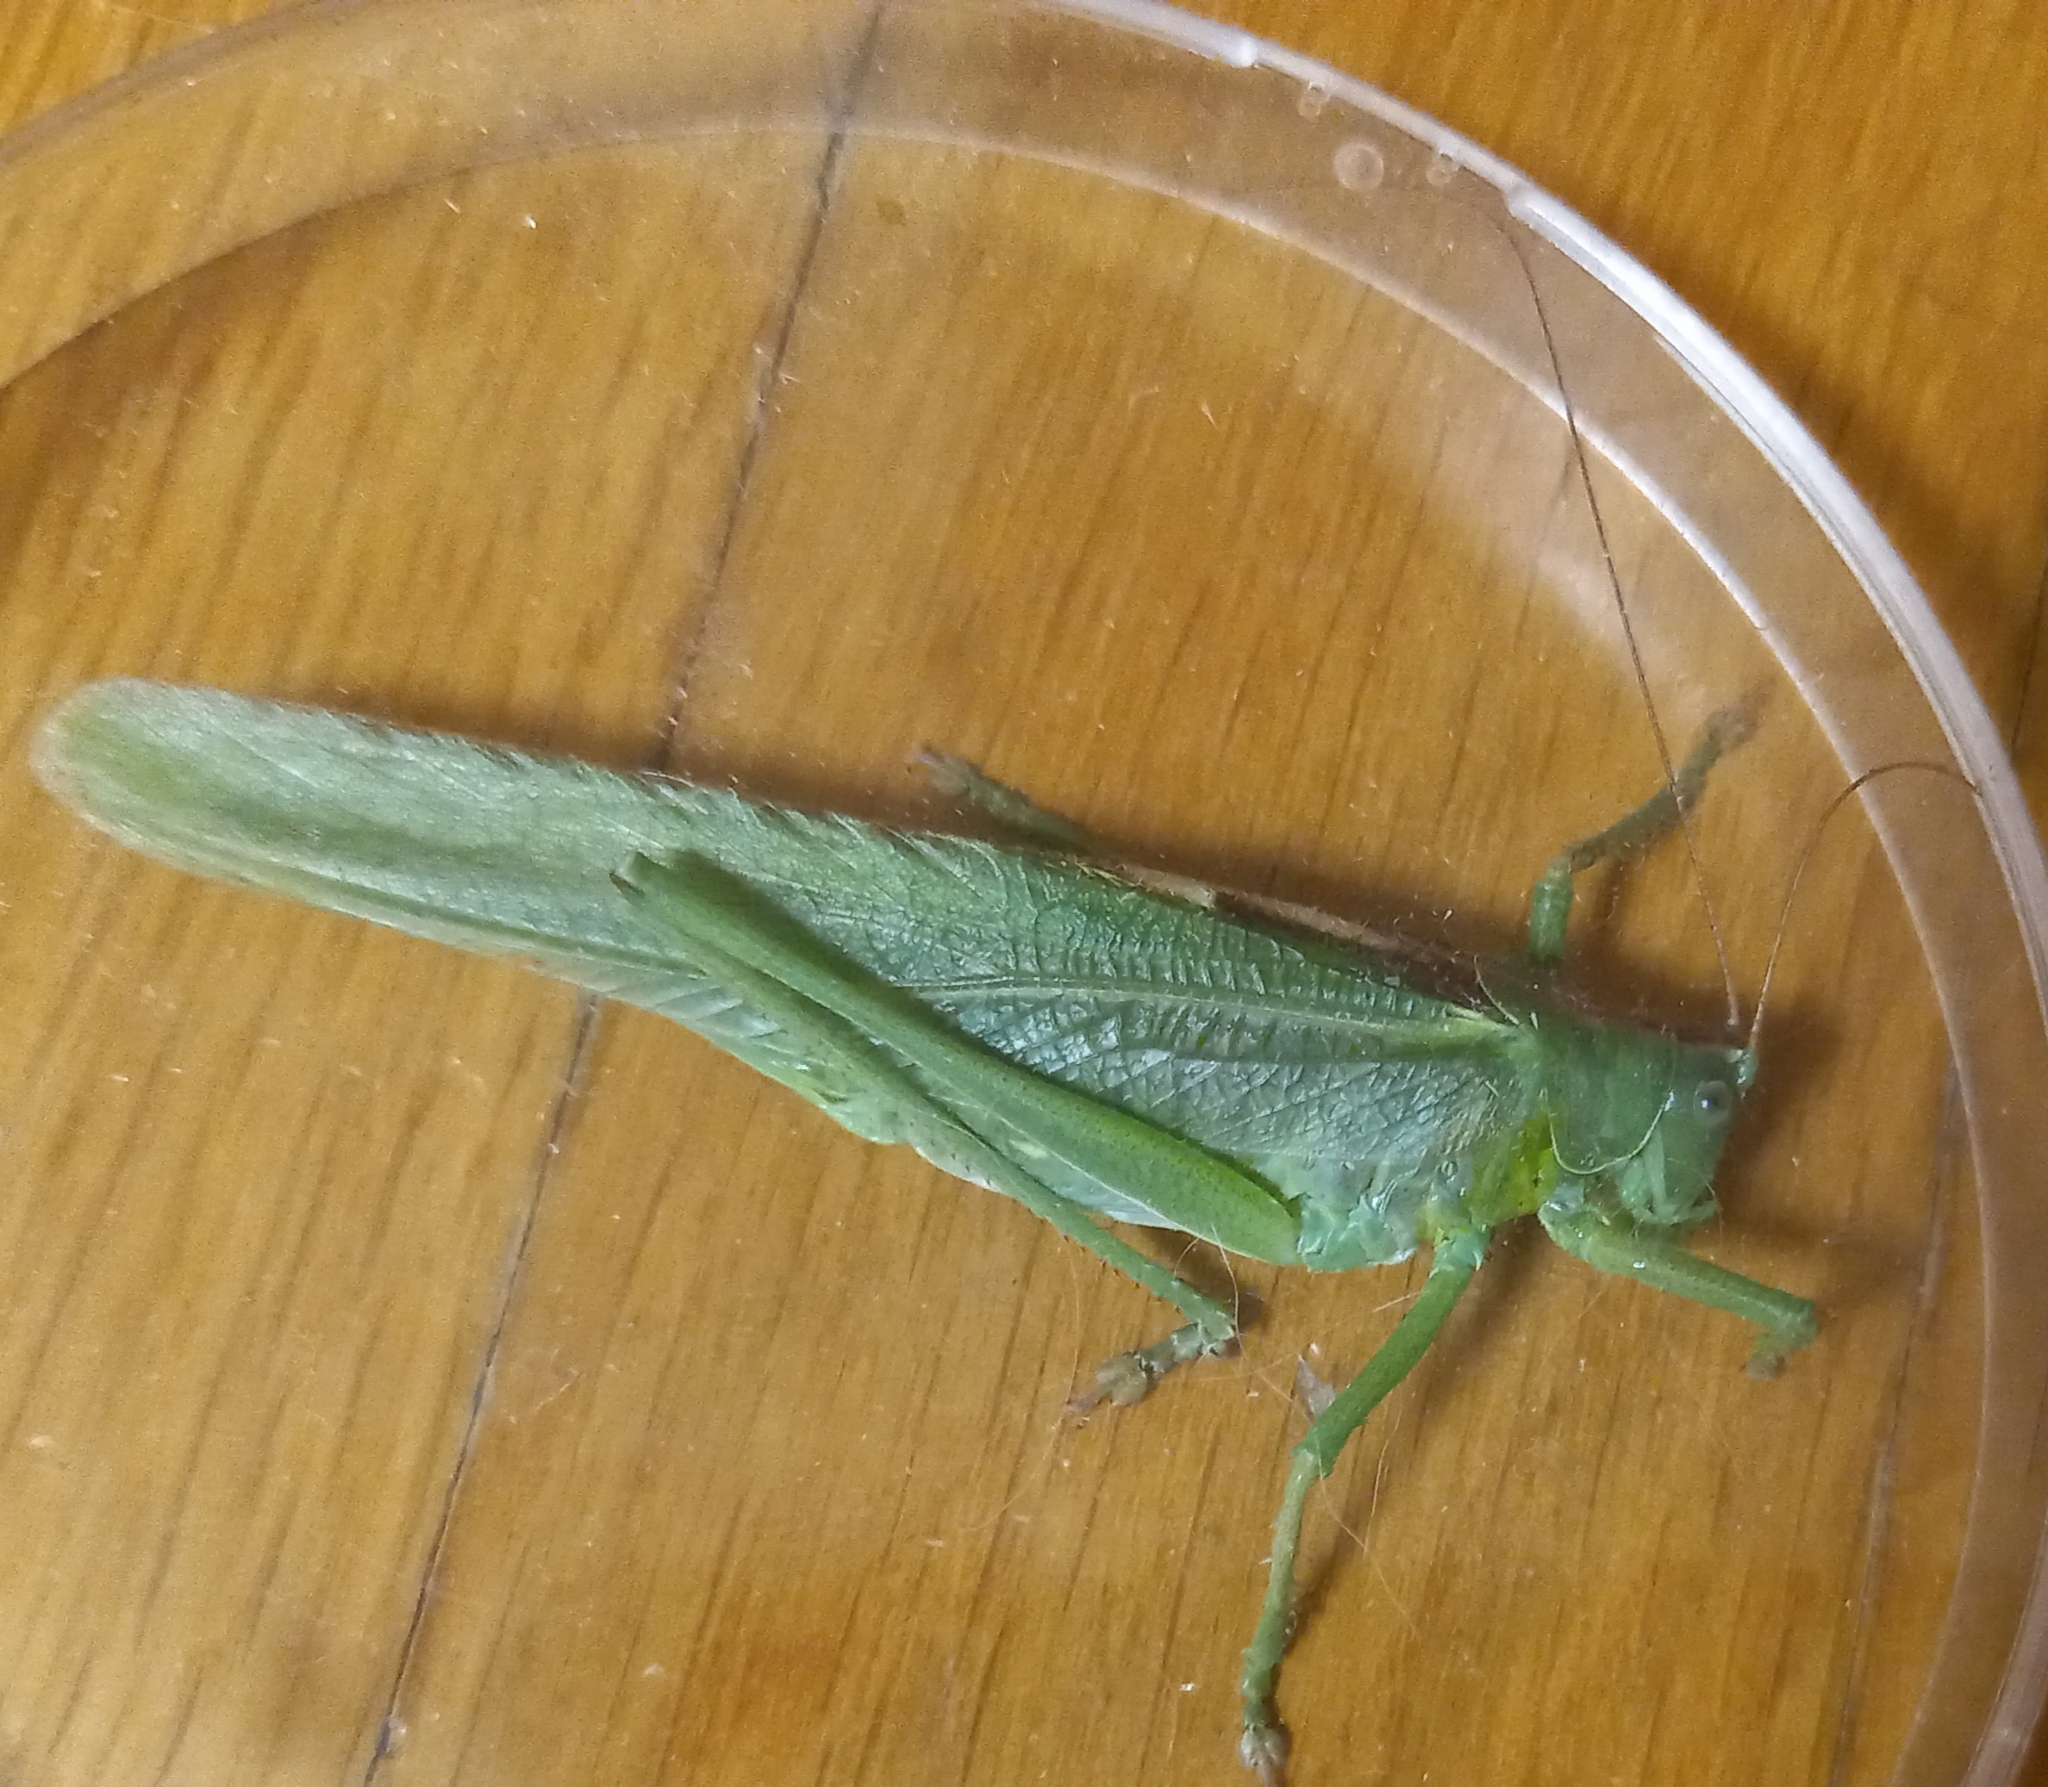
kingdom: Animalia
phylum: Arthropoda
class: Insecta
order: Orthoptera
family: Tettigoniidae
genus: Tettigonia
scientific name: Tettigonia viridissima
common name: Great green bush-cricket
